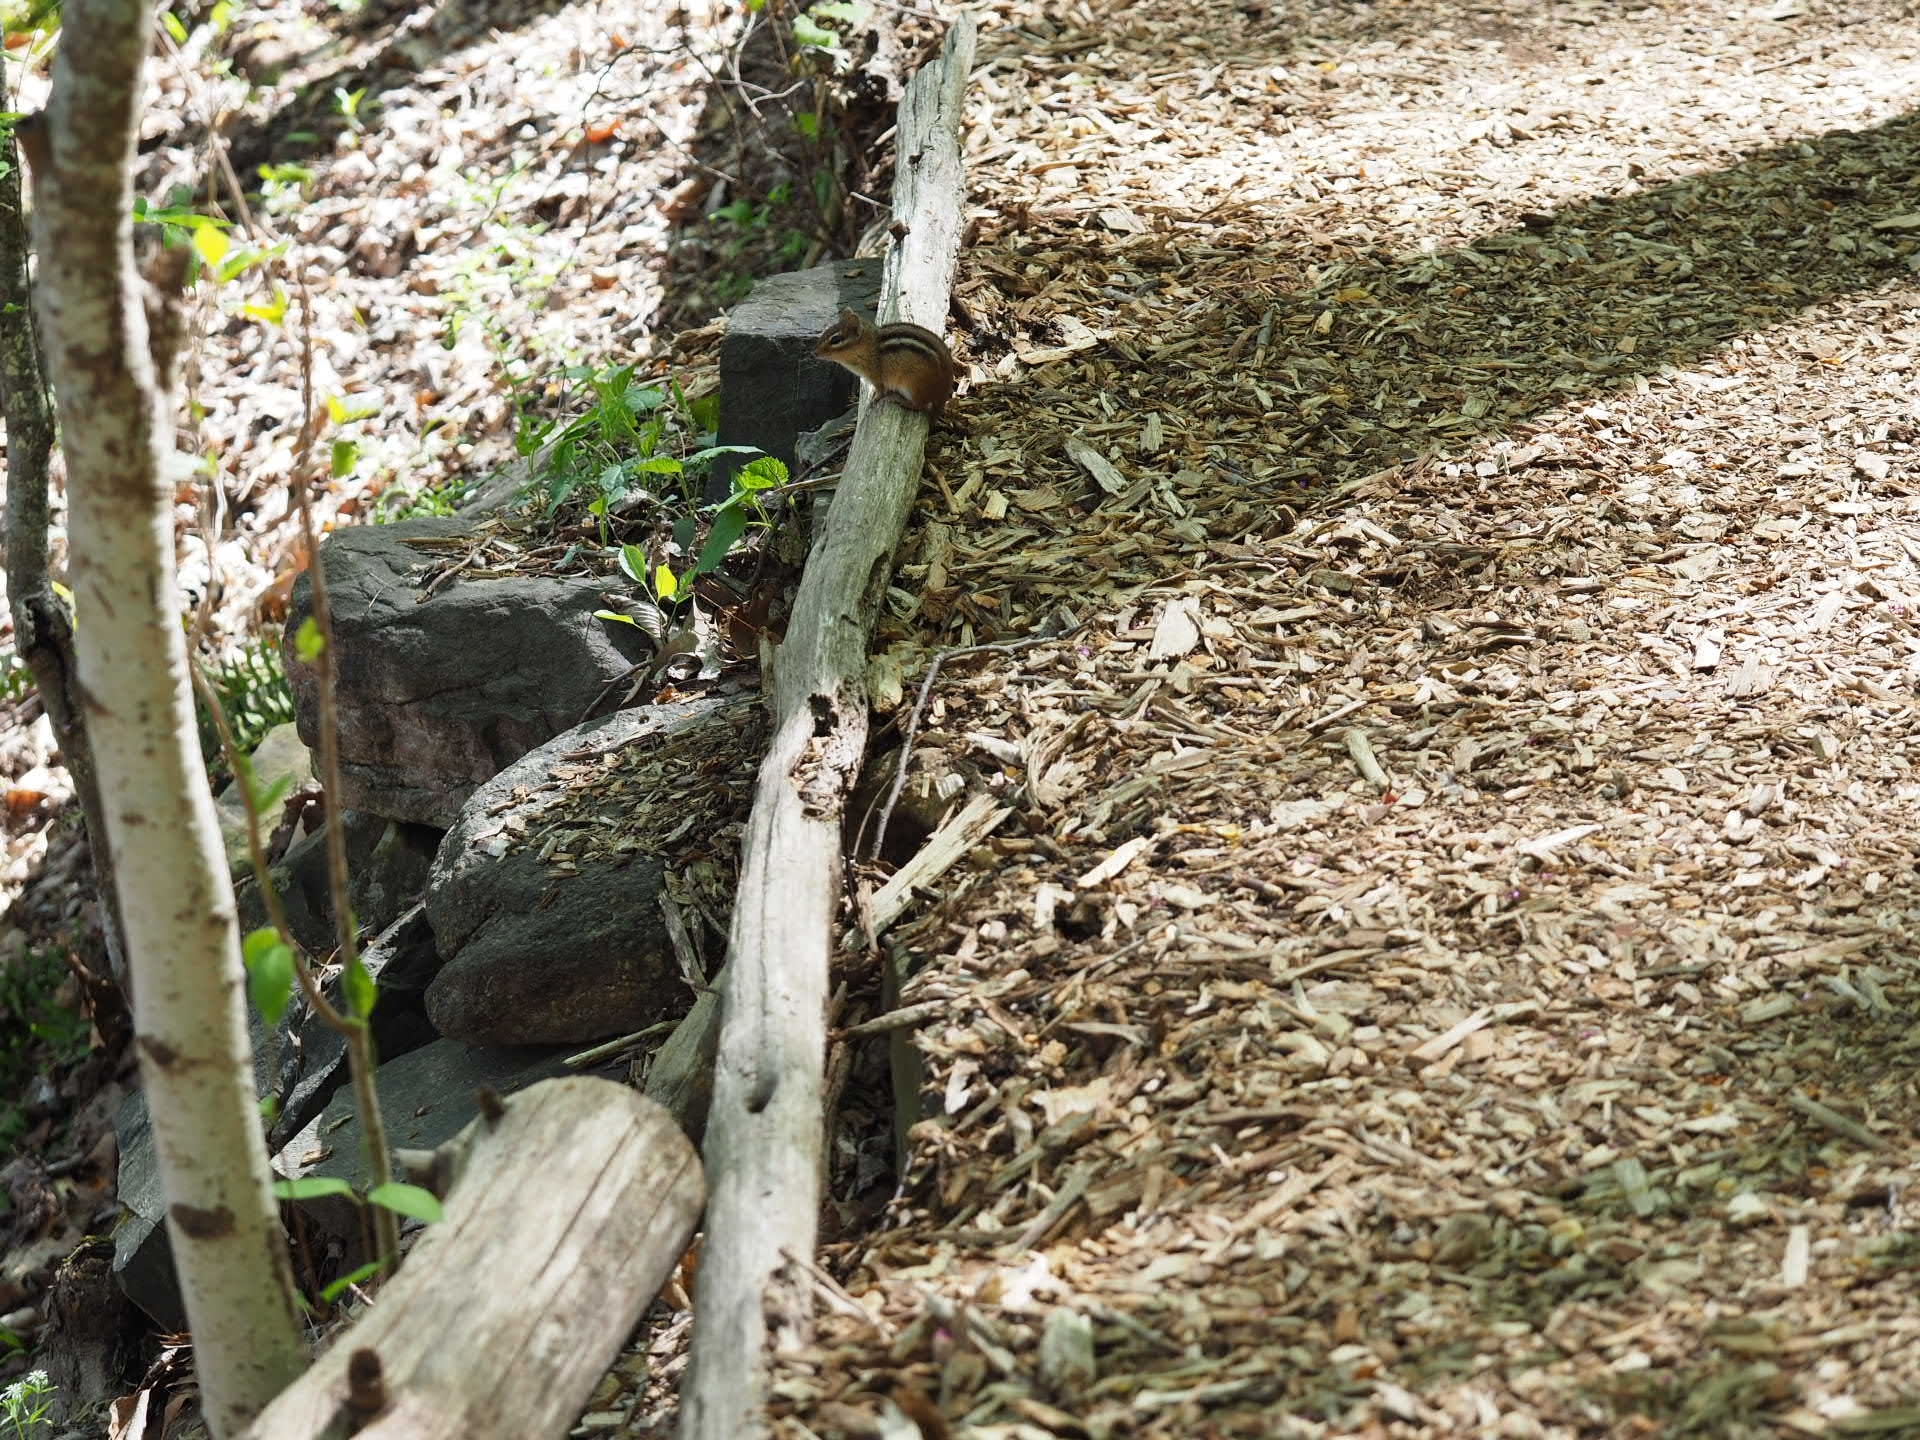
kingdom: Animalia
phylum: Chordata
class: Mammalia
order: Rodentia
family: Sciuridae
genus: Tamias
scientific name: Tamias striatus
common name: Eastern chipmunk
